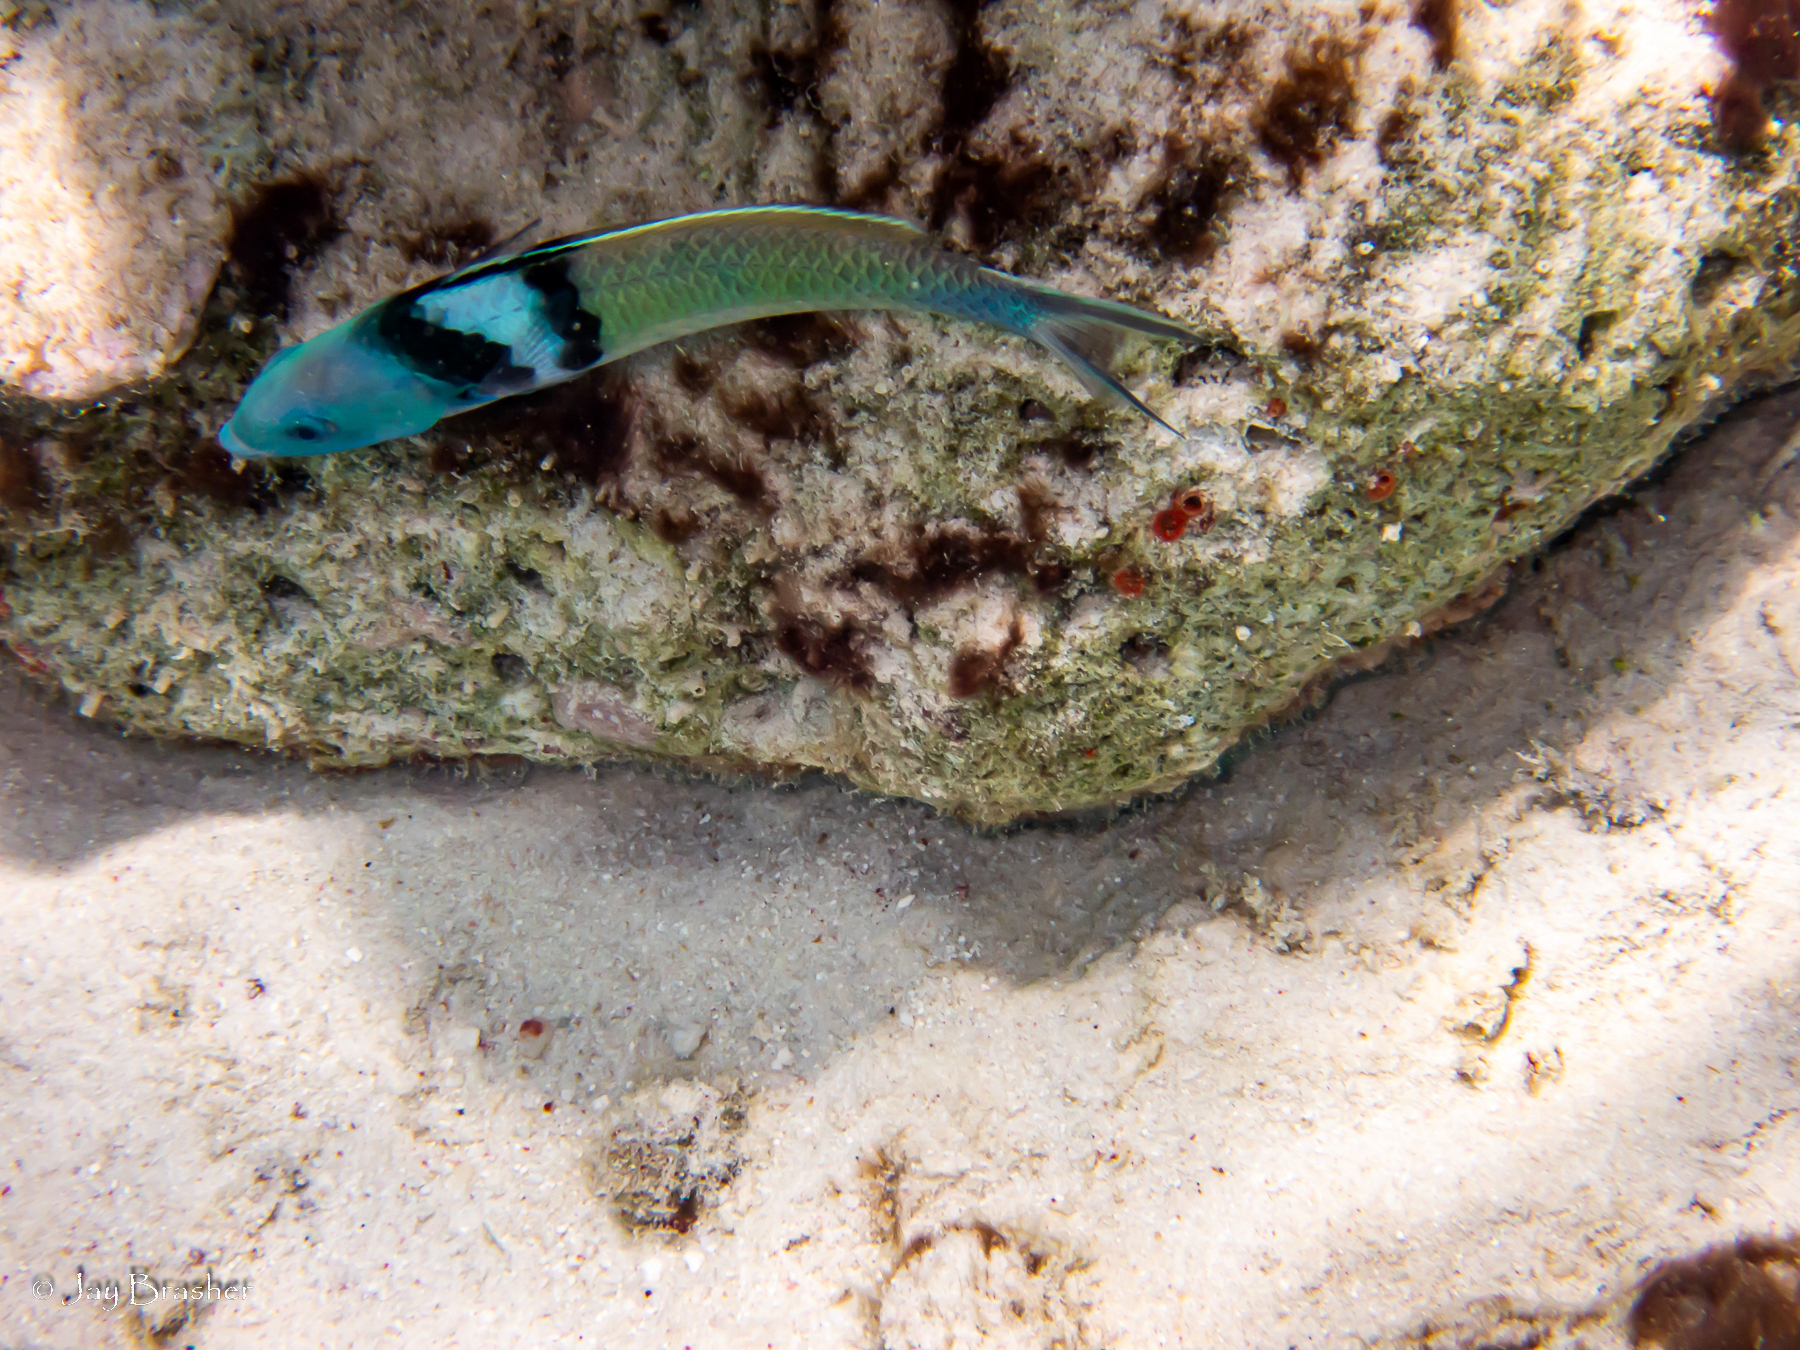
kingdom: Animalia
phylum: Chordata
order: Perciformes
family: Labridae
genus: Thalassoma
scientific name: Thalassoma bifasciatum
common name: Bluehead wrasse
